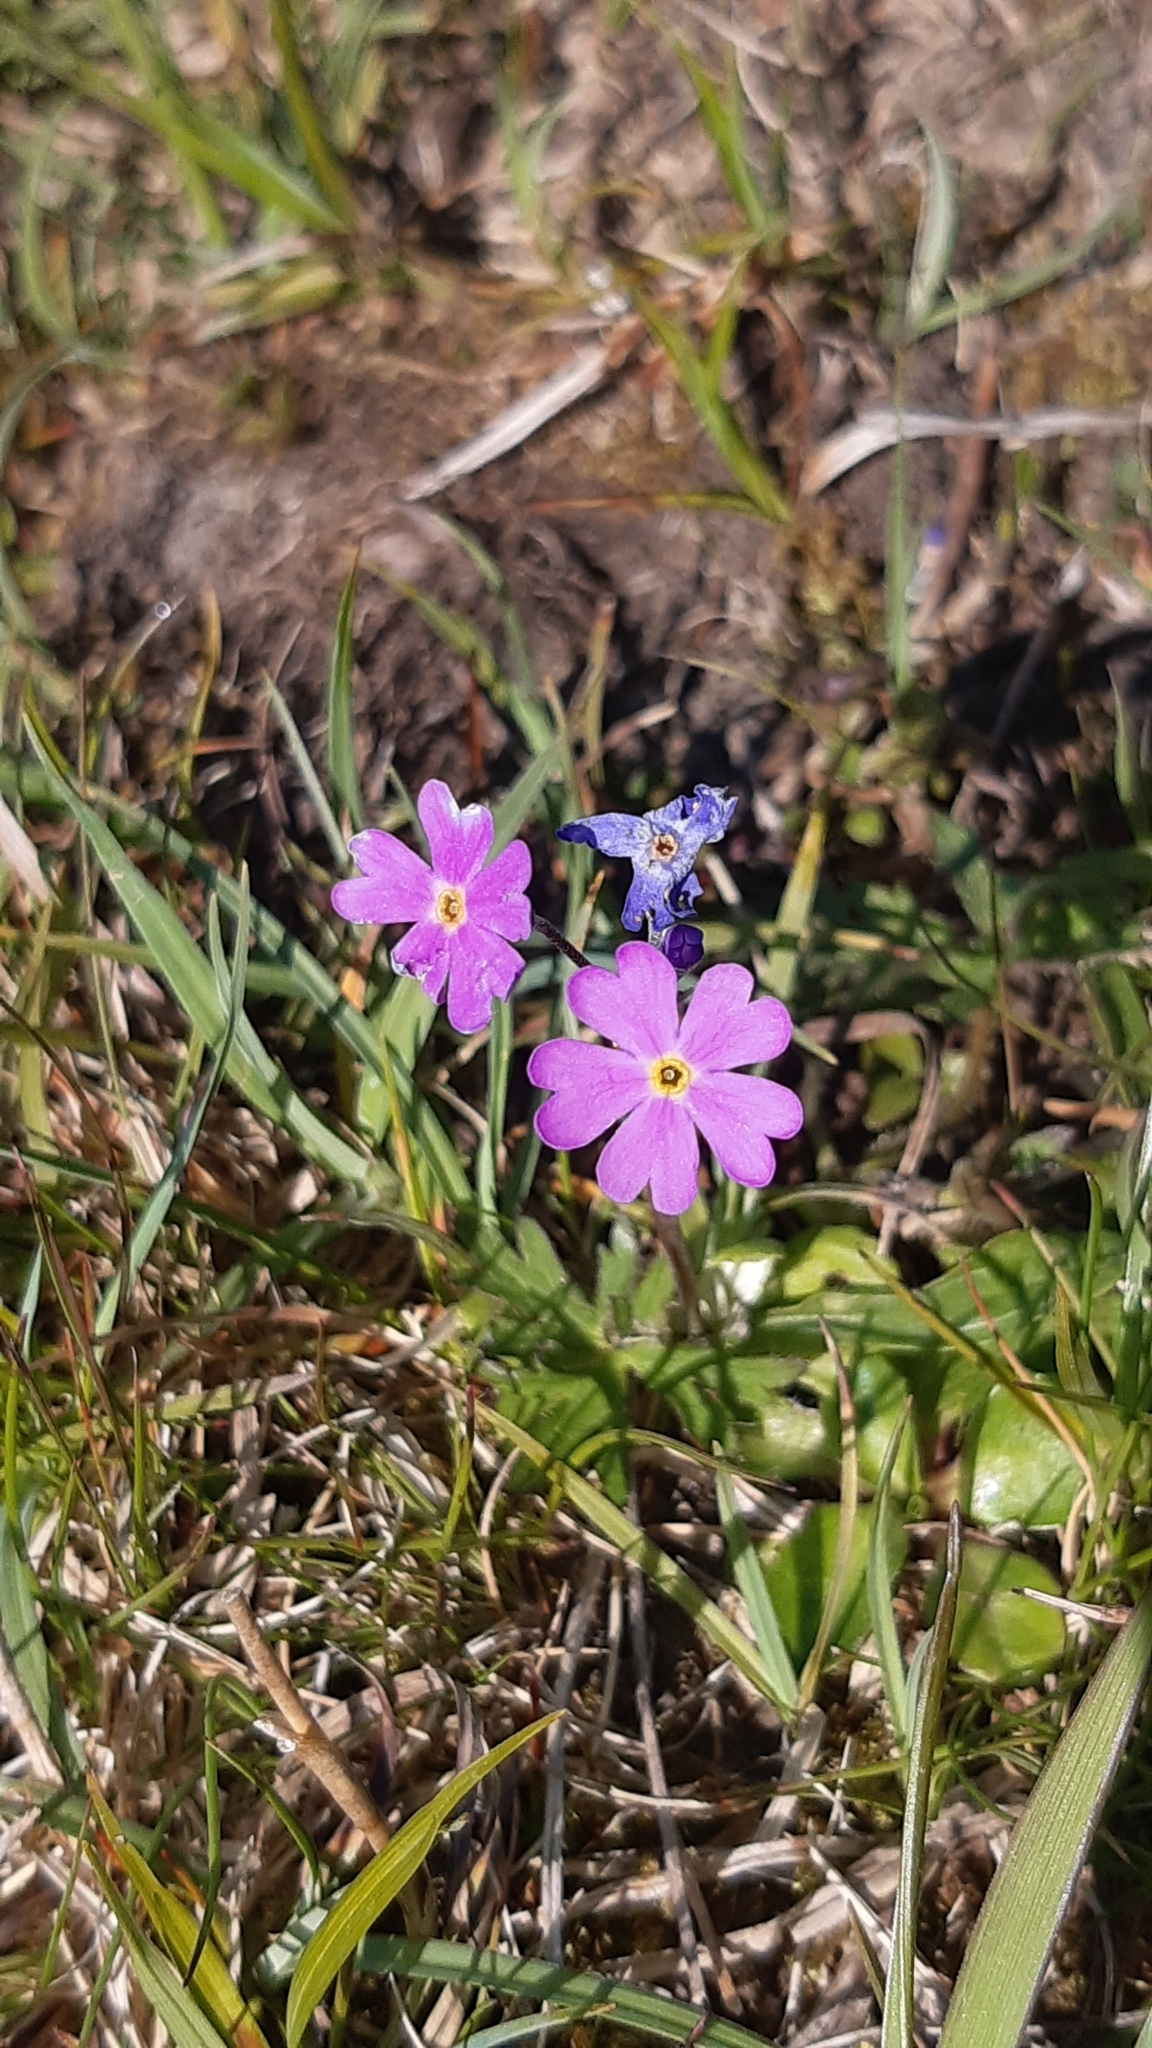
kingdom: Plantae
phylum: Tracheophyta
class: Magnoliopsida
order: Ericales
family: Primulaceae
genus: Primula
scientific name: Primula farinosa
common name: Bird's-eye primrose
